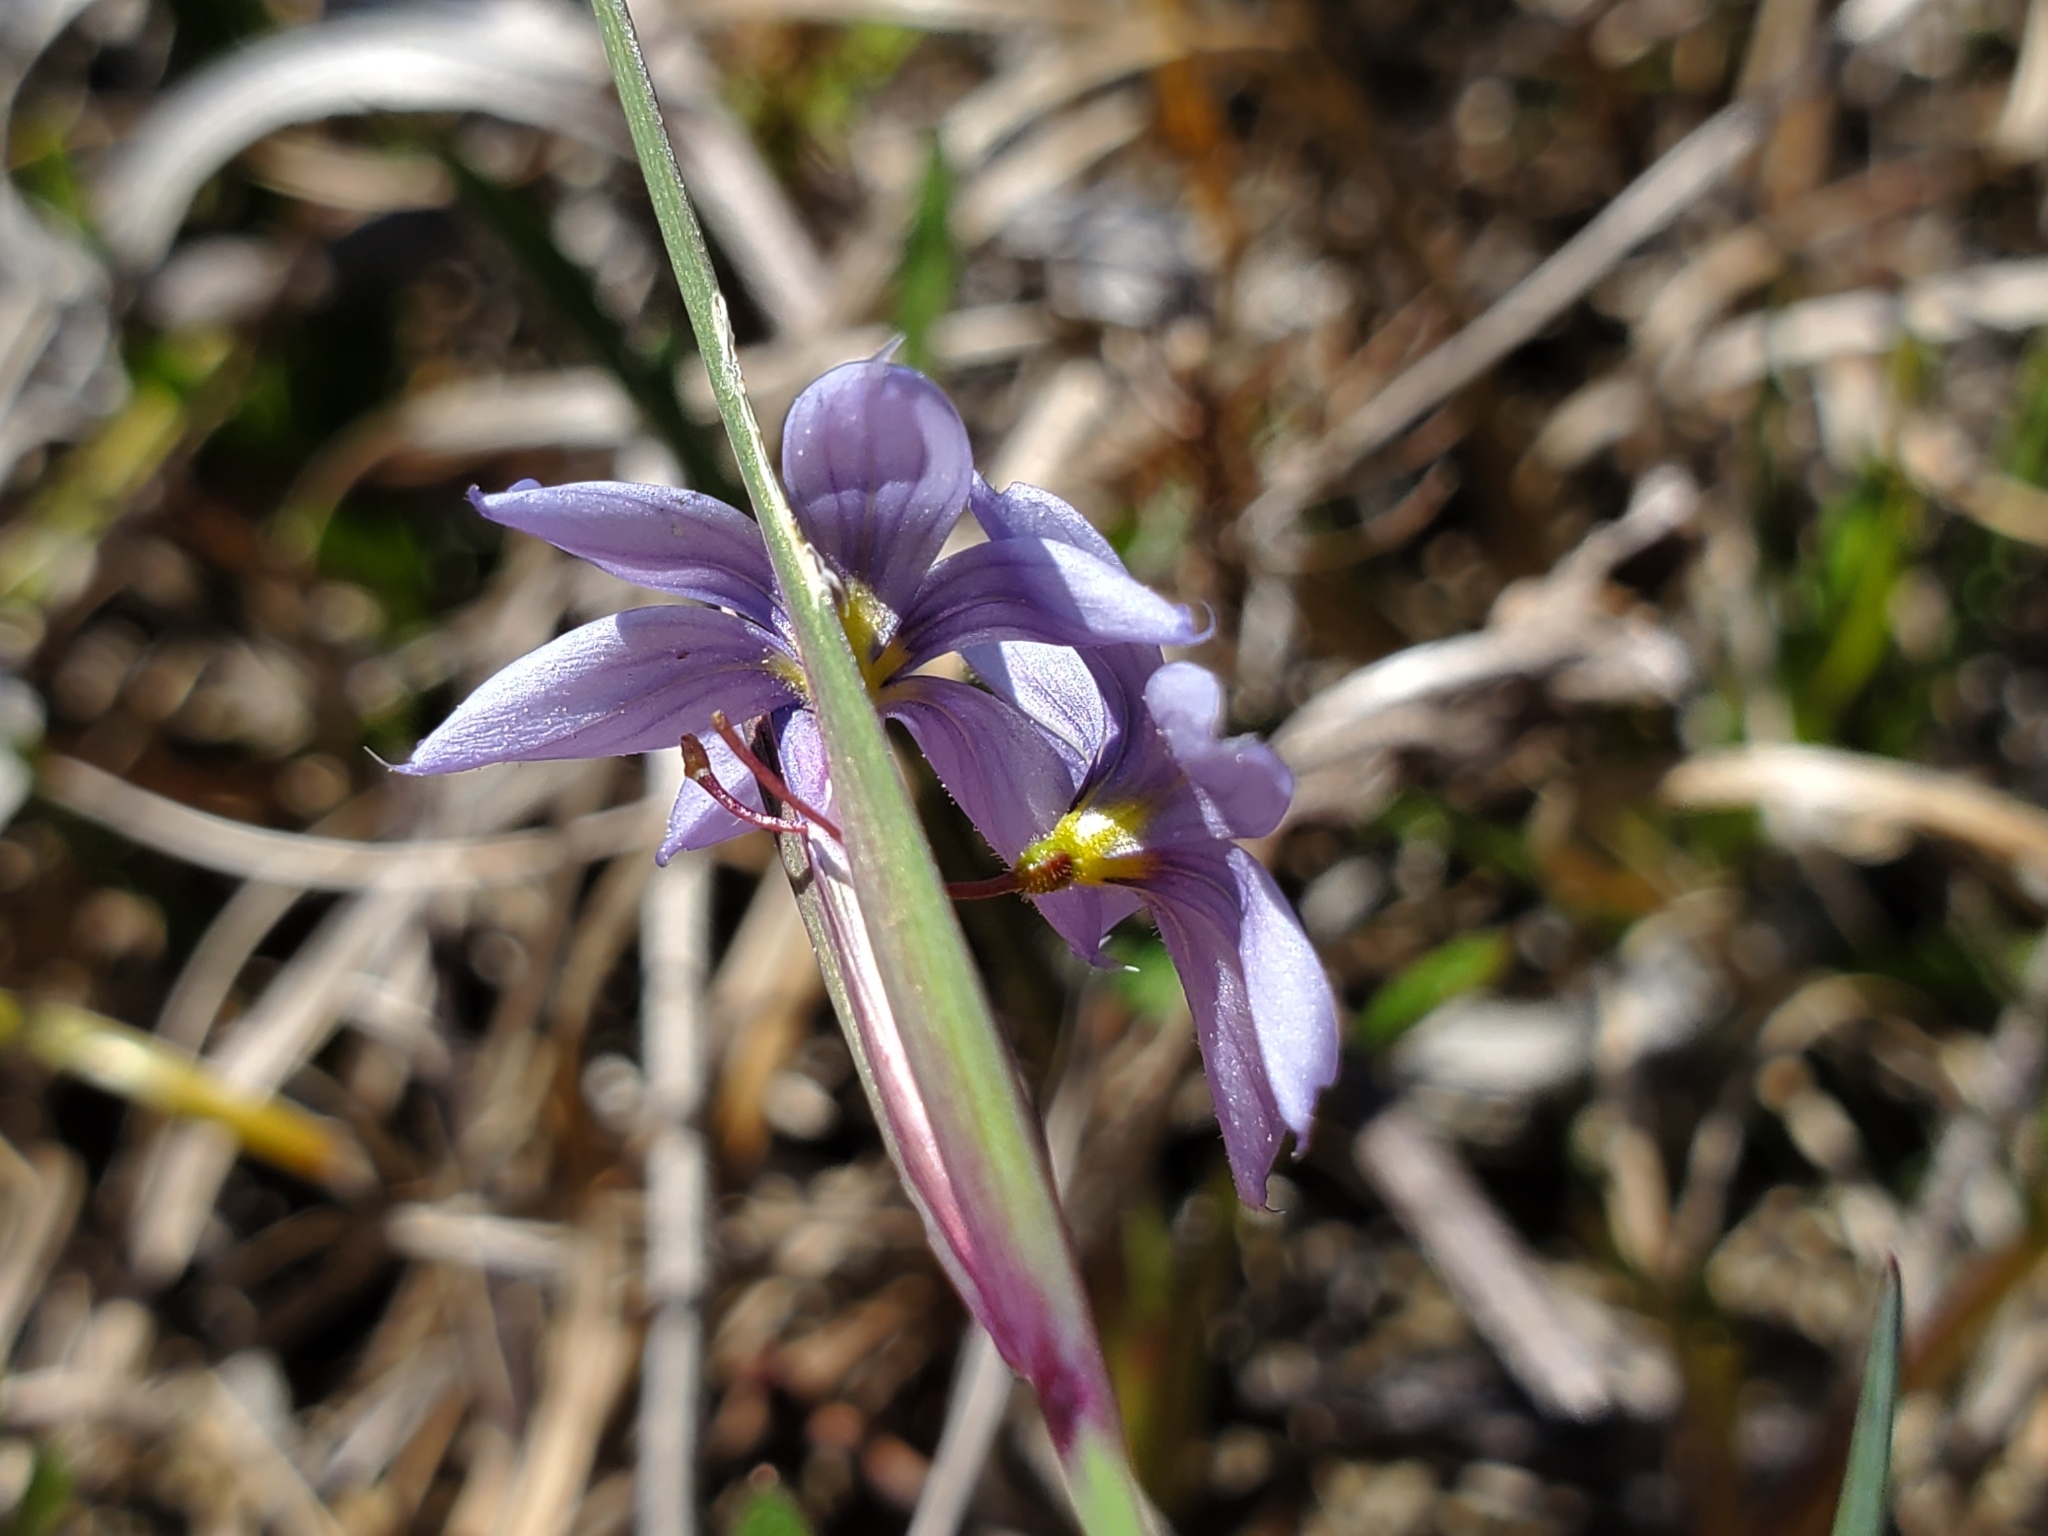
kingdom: Plantae
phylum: Tracheophyta
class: Liliopsida
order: Asparagales
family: Iridaceae
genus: Sisyrinchium
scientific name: Sisyrinchium albidum
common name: Pale blue-eyed-grass
